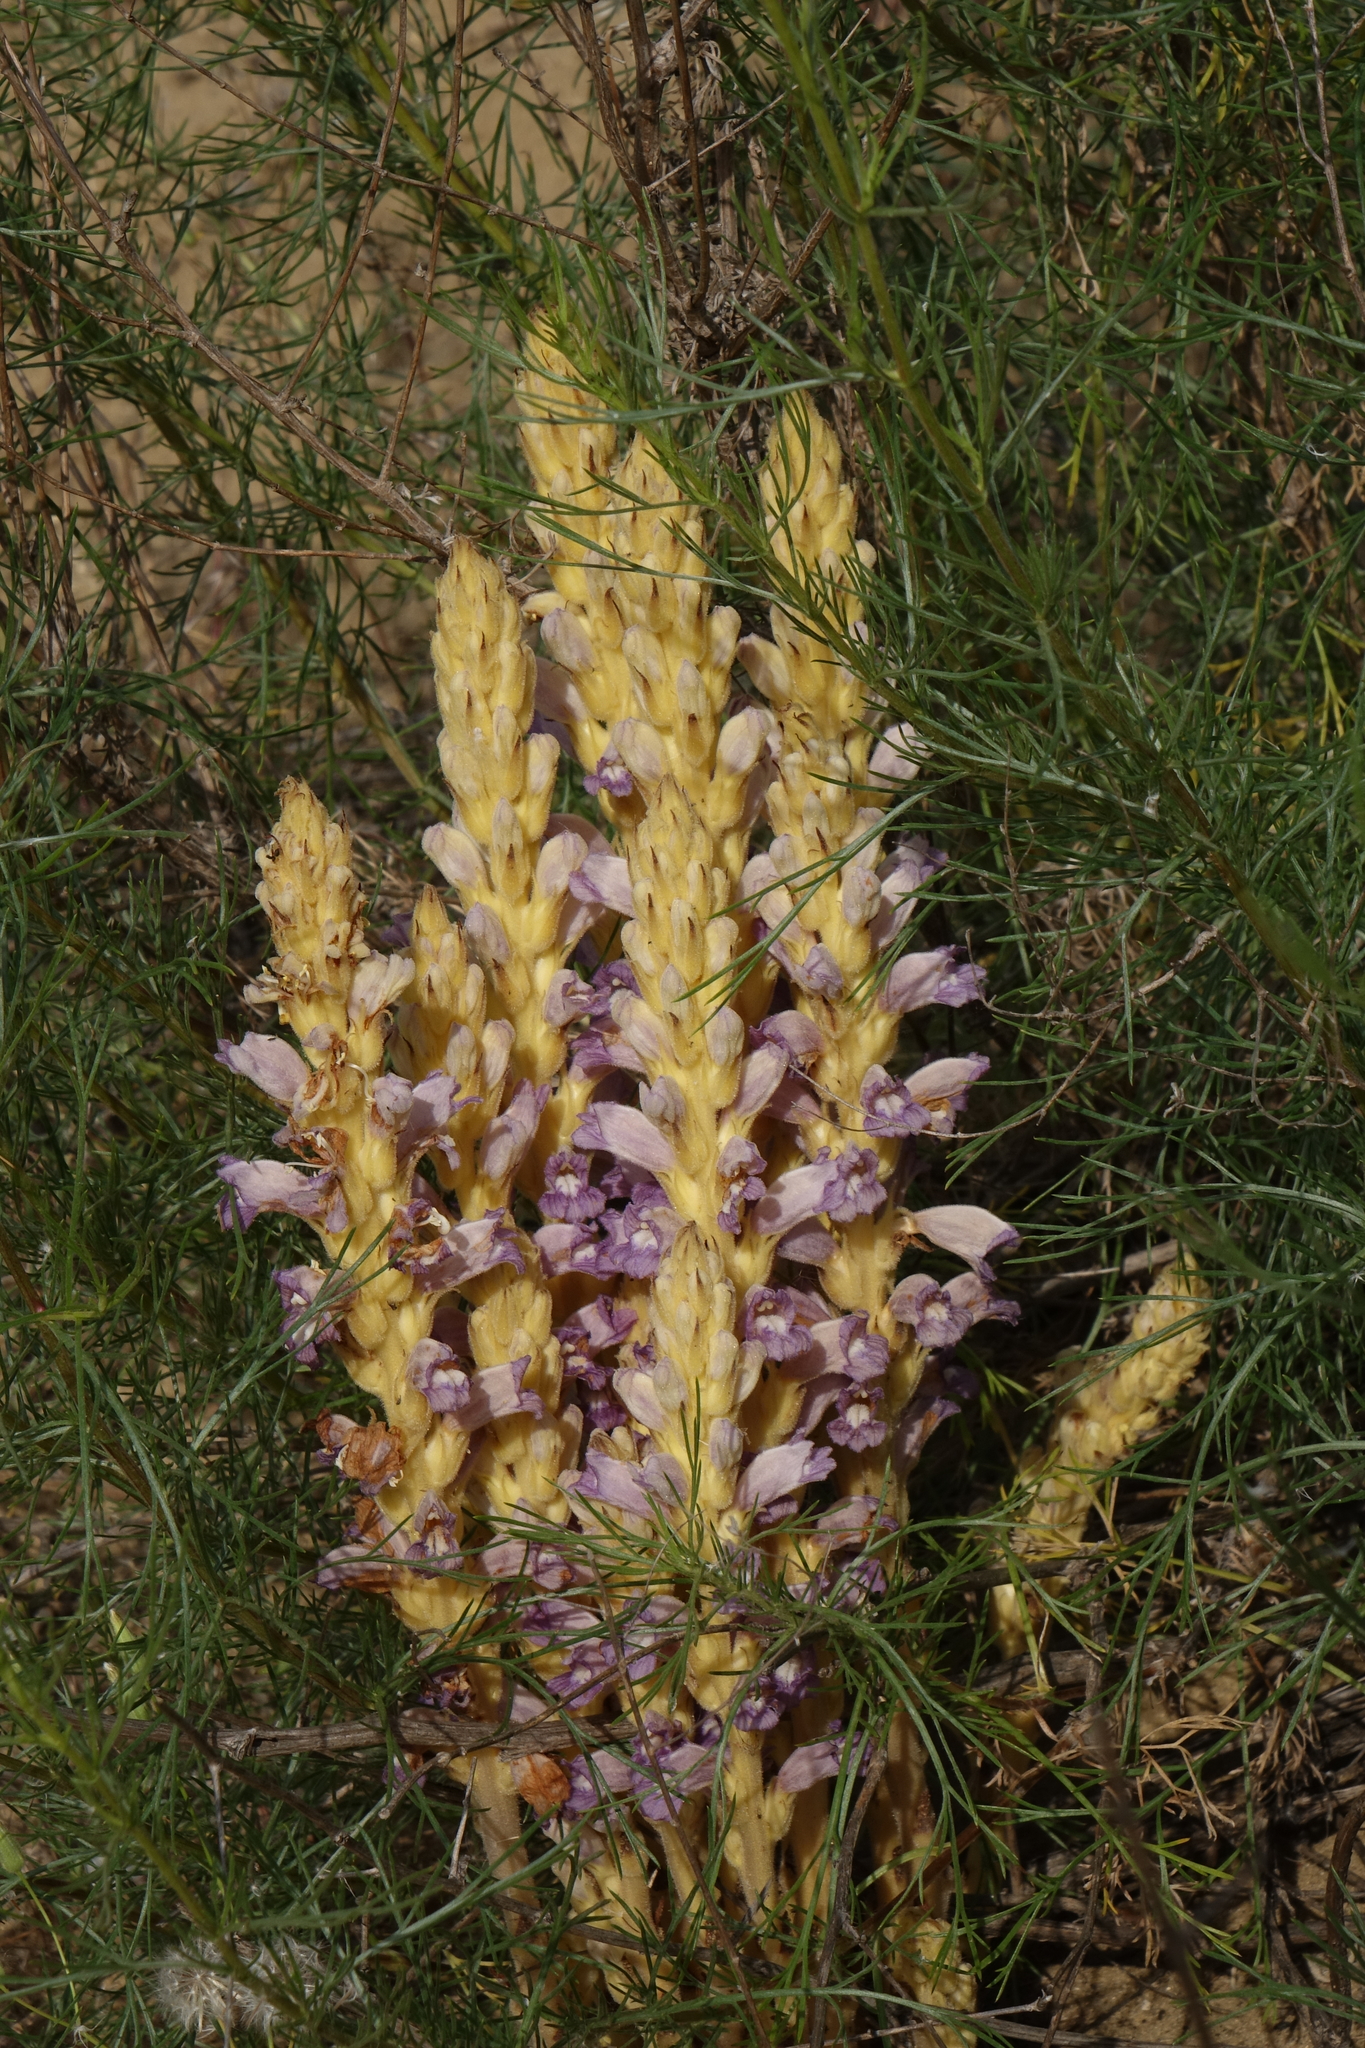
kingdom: Plantae
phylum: Tracheophyta
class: Magnoliopsida
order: Lamiales
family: Orobanchaceae
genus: Phelipanche
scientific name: Phelipanche arenaria
